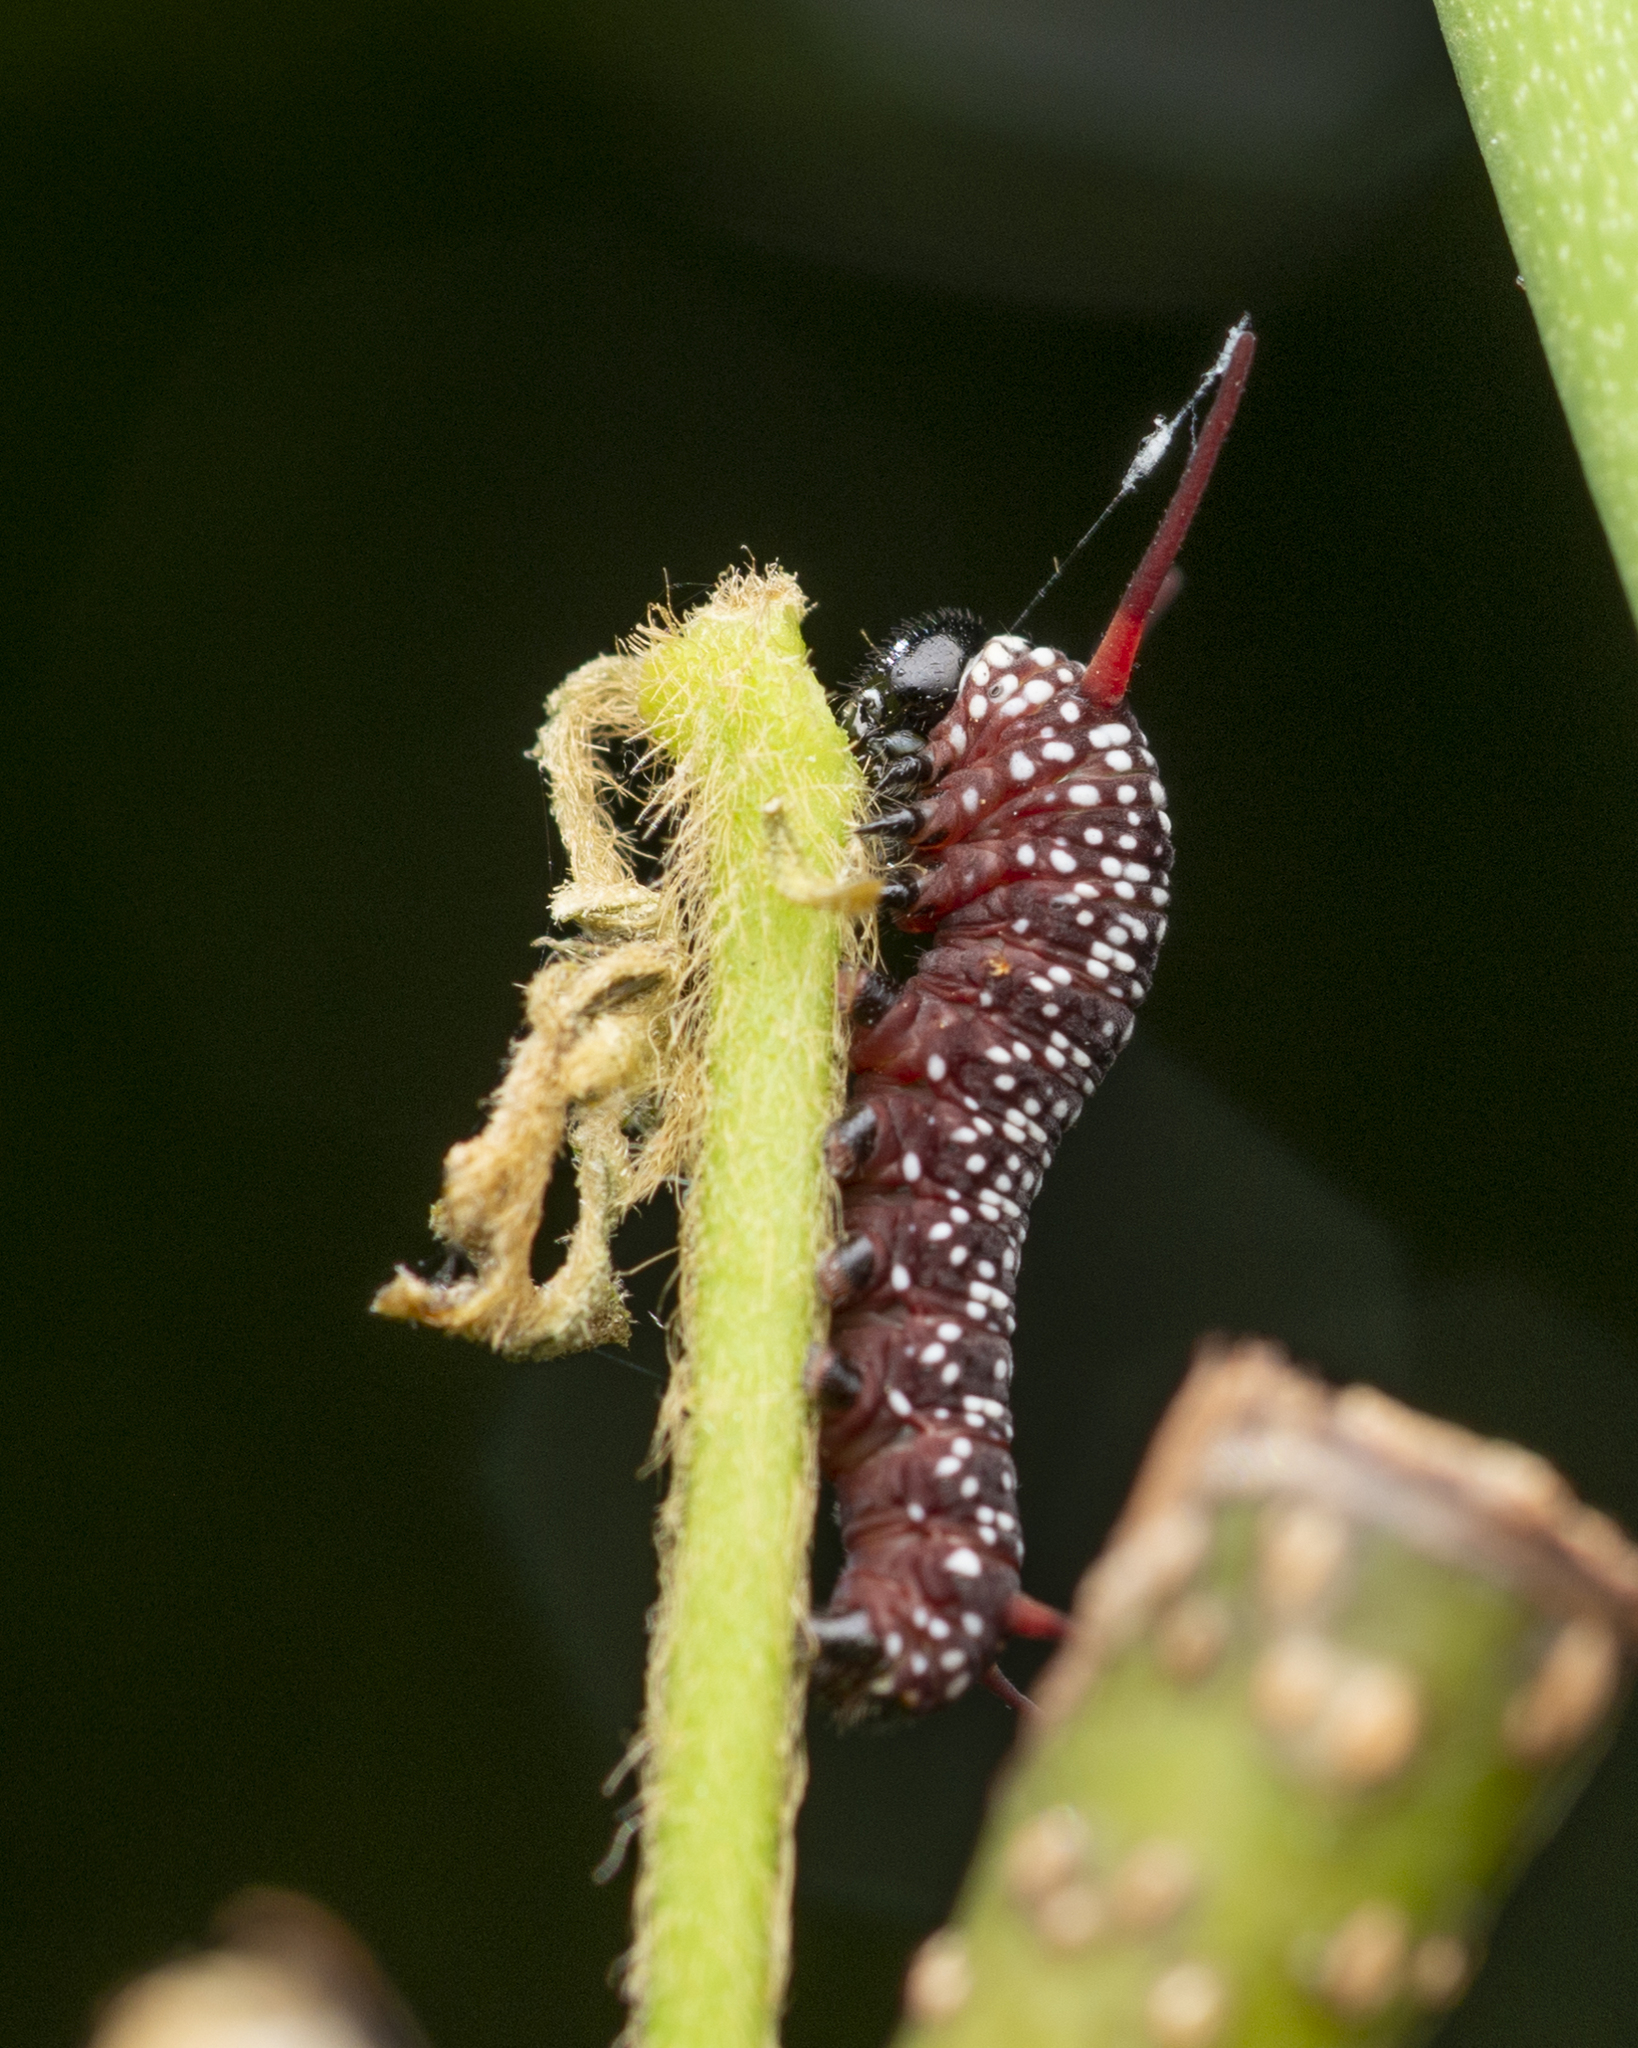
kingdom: Animalia
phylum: Arthropoda
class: Insecta
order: Lepidoptera
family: Nymphalidae
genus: Ideopsis
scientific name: Ideopsis similis
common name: Ceylon blue glassy tiger
